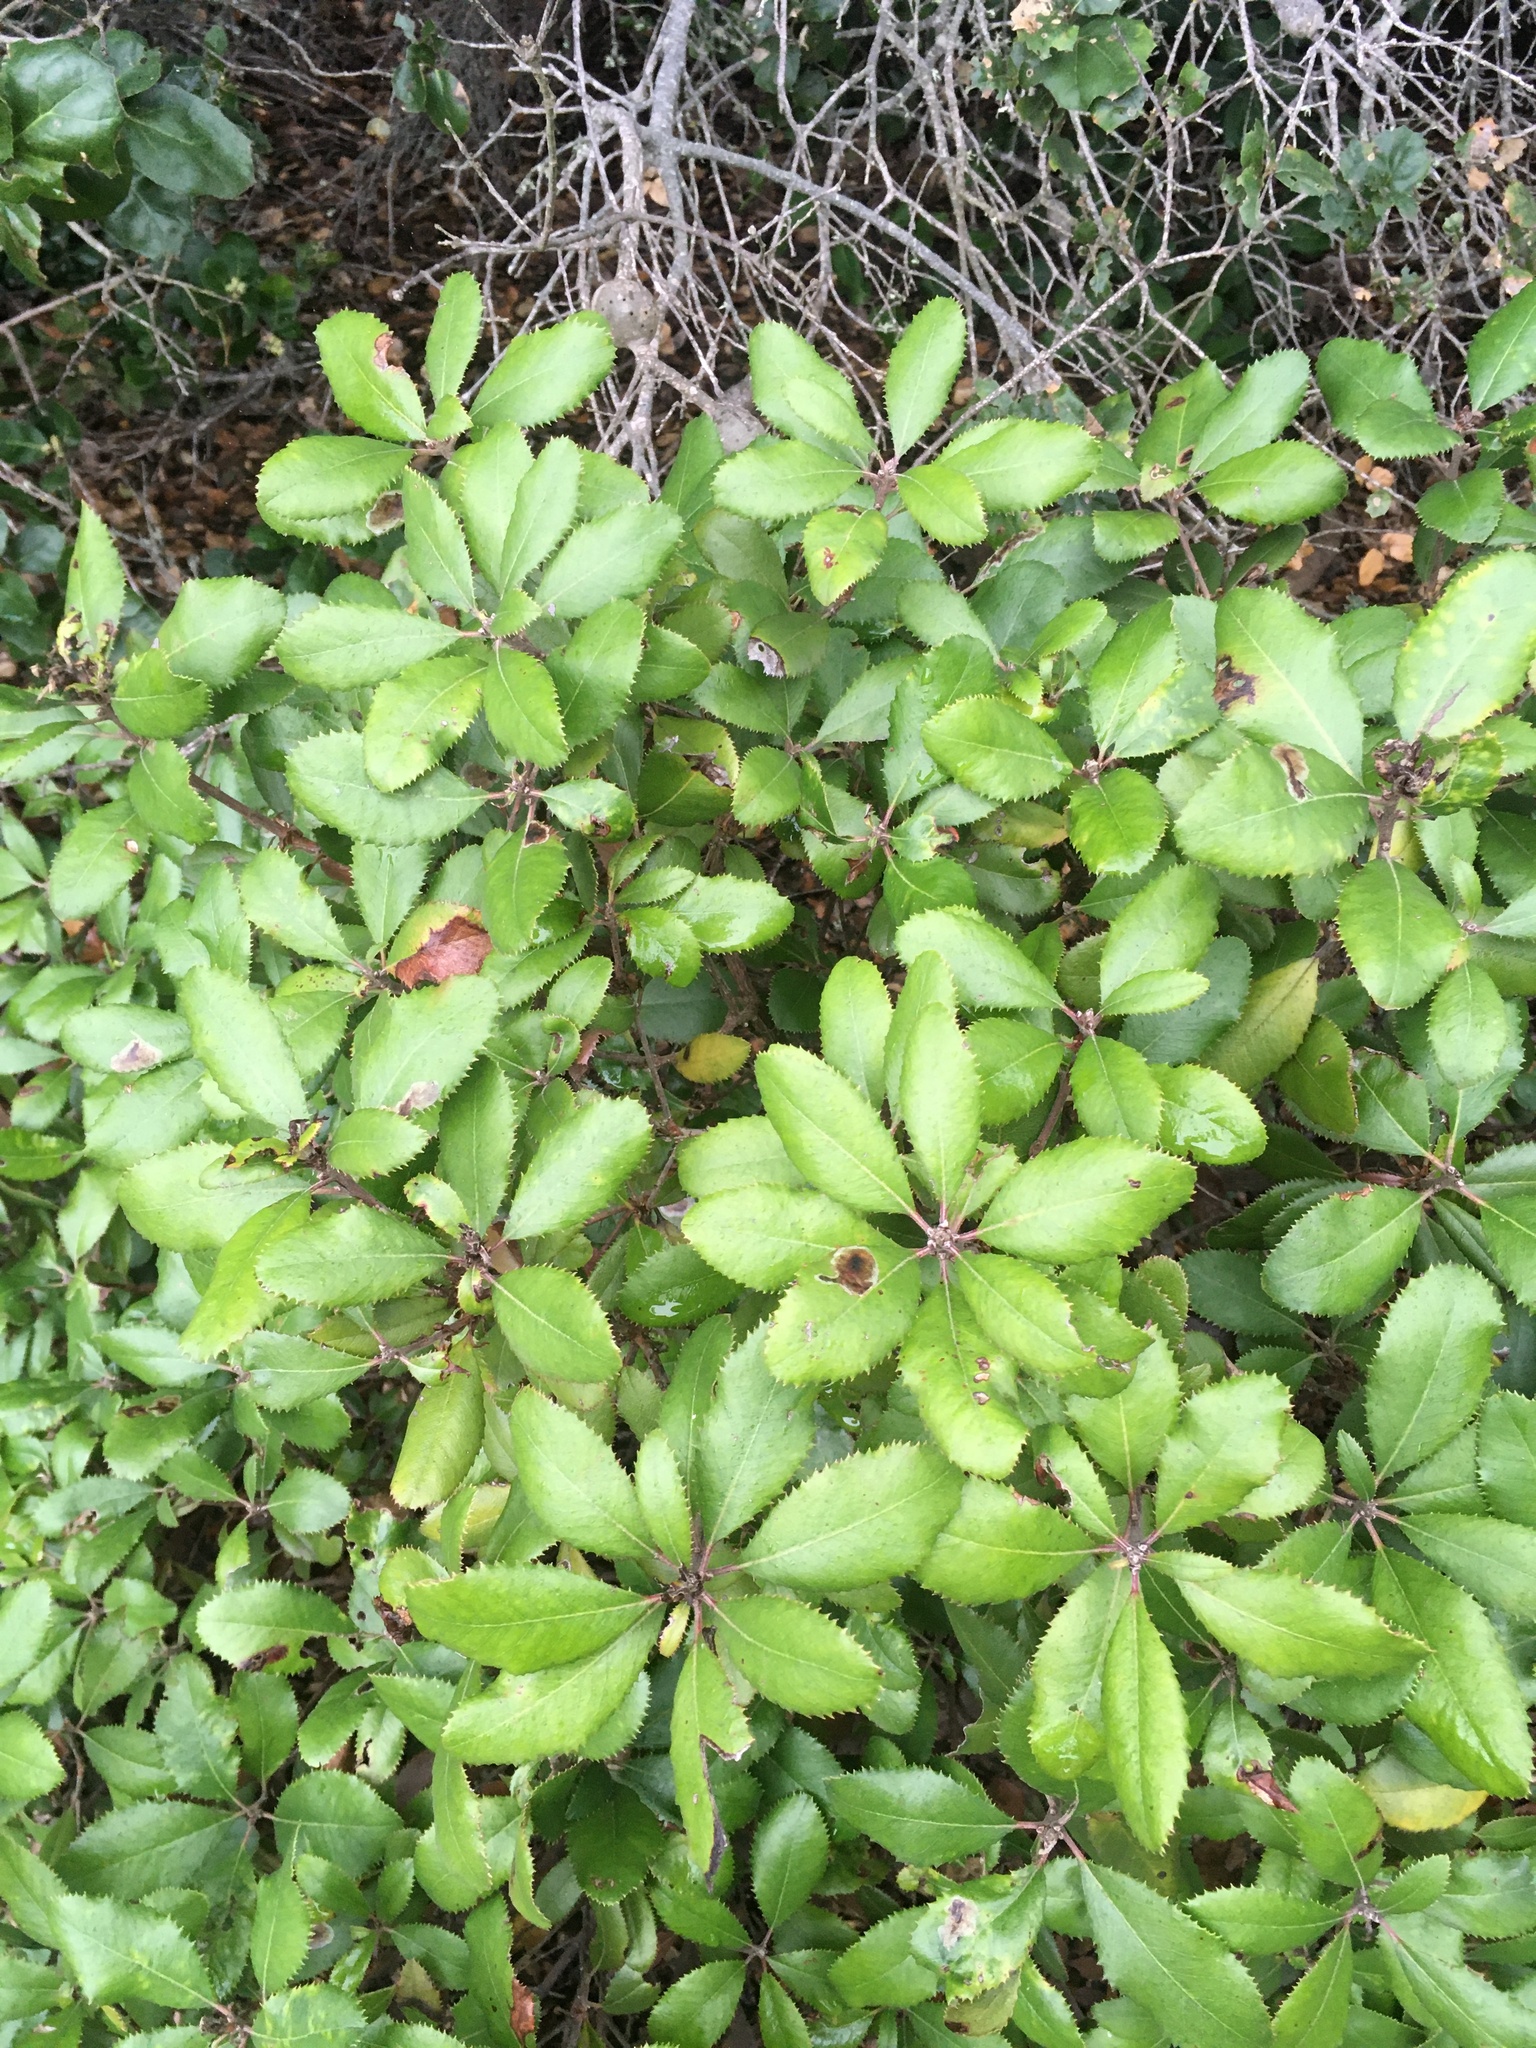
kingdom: Plantae
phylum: Tracheophyta
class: Magnoliopsida
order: Ericales
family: Ericaceae
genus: Comarostaphylis
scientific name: Comarostaphylis diversifolia
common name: Summer-holly
